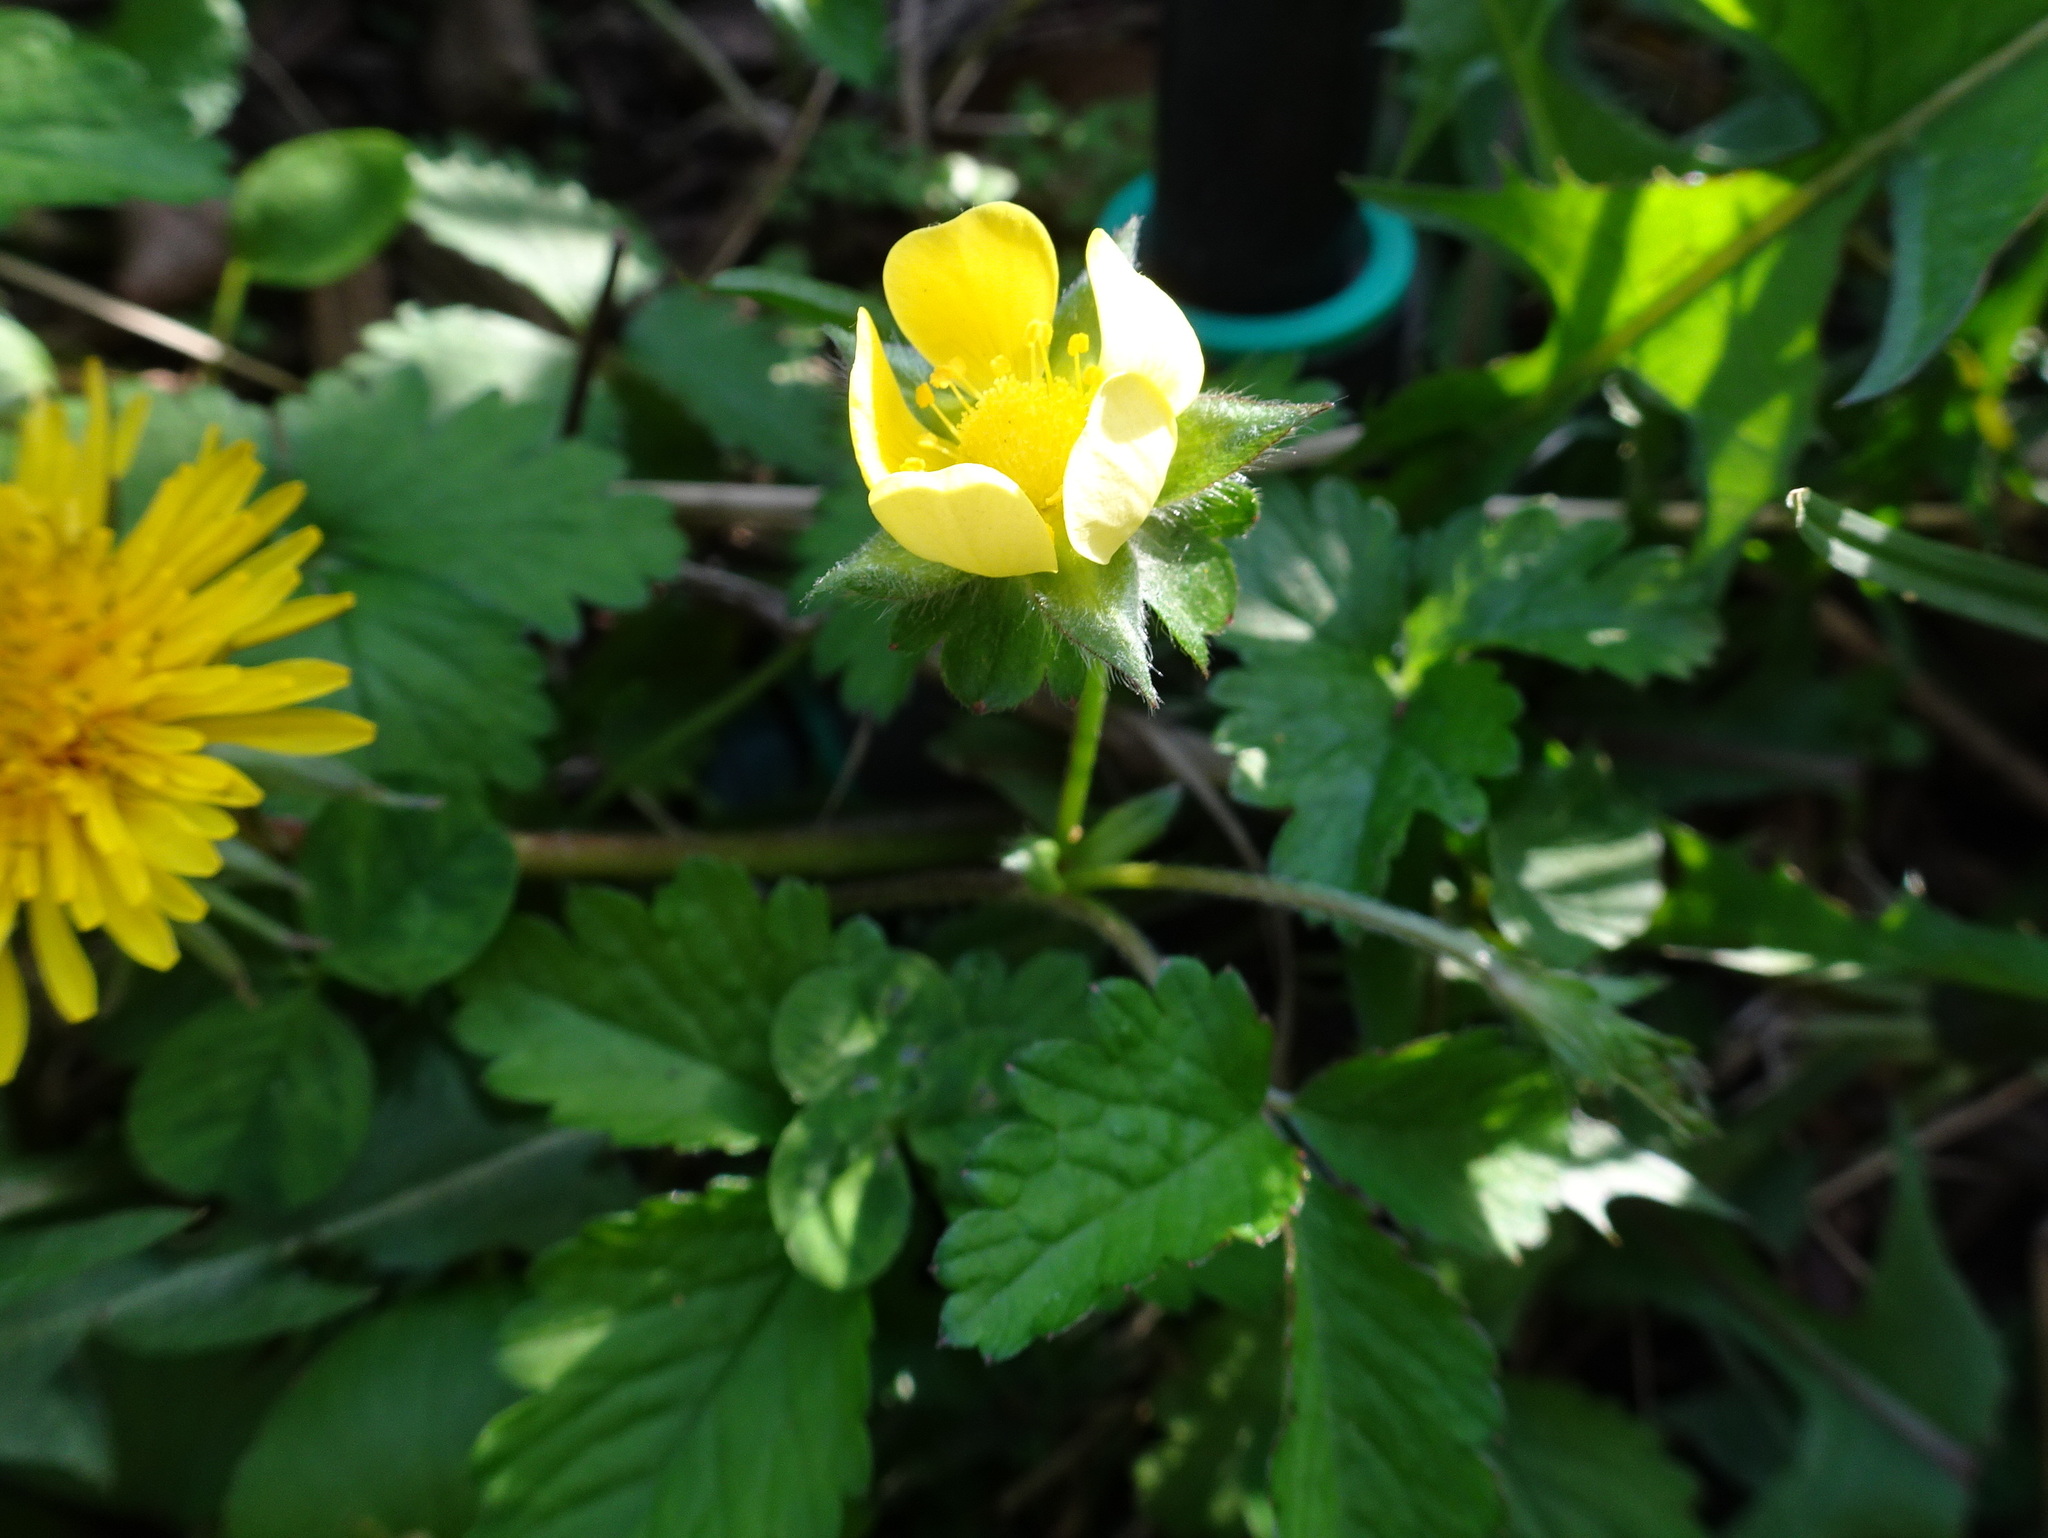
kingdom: Plantae
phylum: Tracheophyta
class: Magnoliopsida
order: Rosales
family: Rosaceae
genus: Potentilla
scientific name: Potentilla indica
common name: Yellow-flowered strawberry
